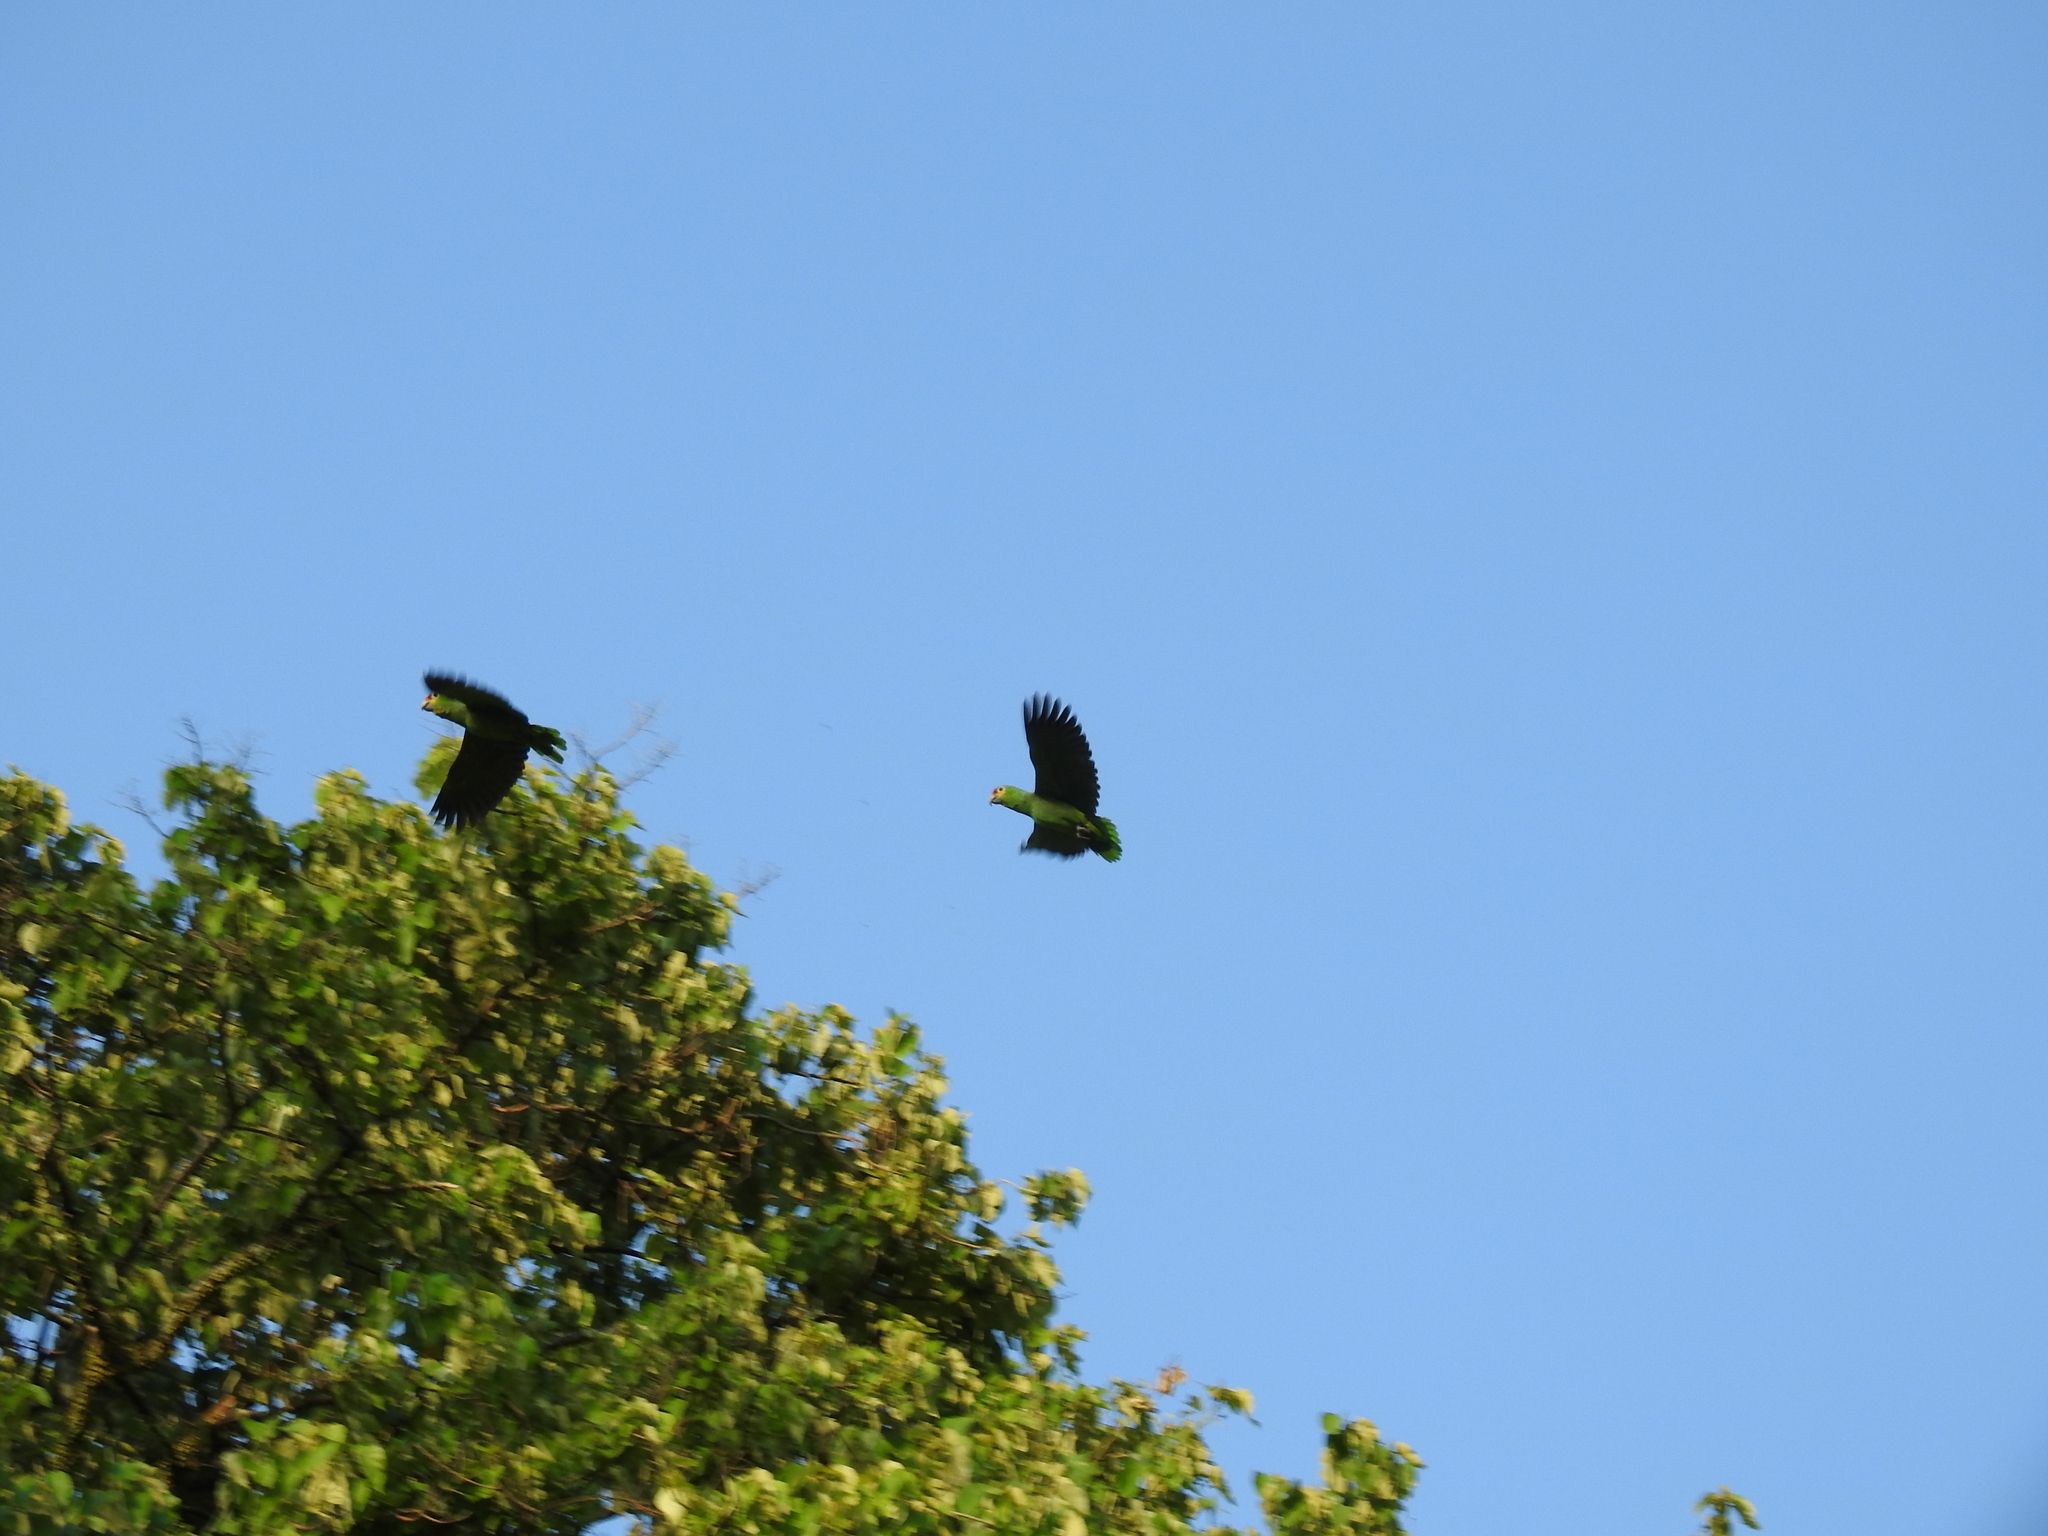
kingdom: Animalia
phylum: Chordata
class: Aves
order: Psittaciformes
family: Psittacidae
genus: Amazona
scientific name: Amazona autumnalis
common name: Red-lored amazon
